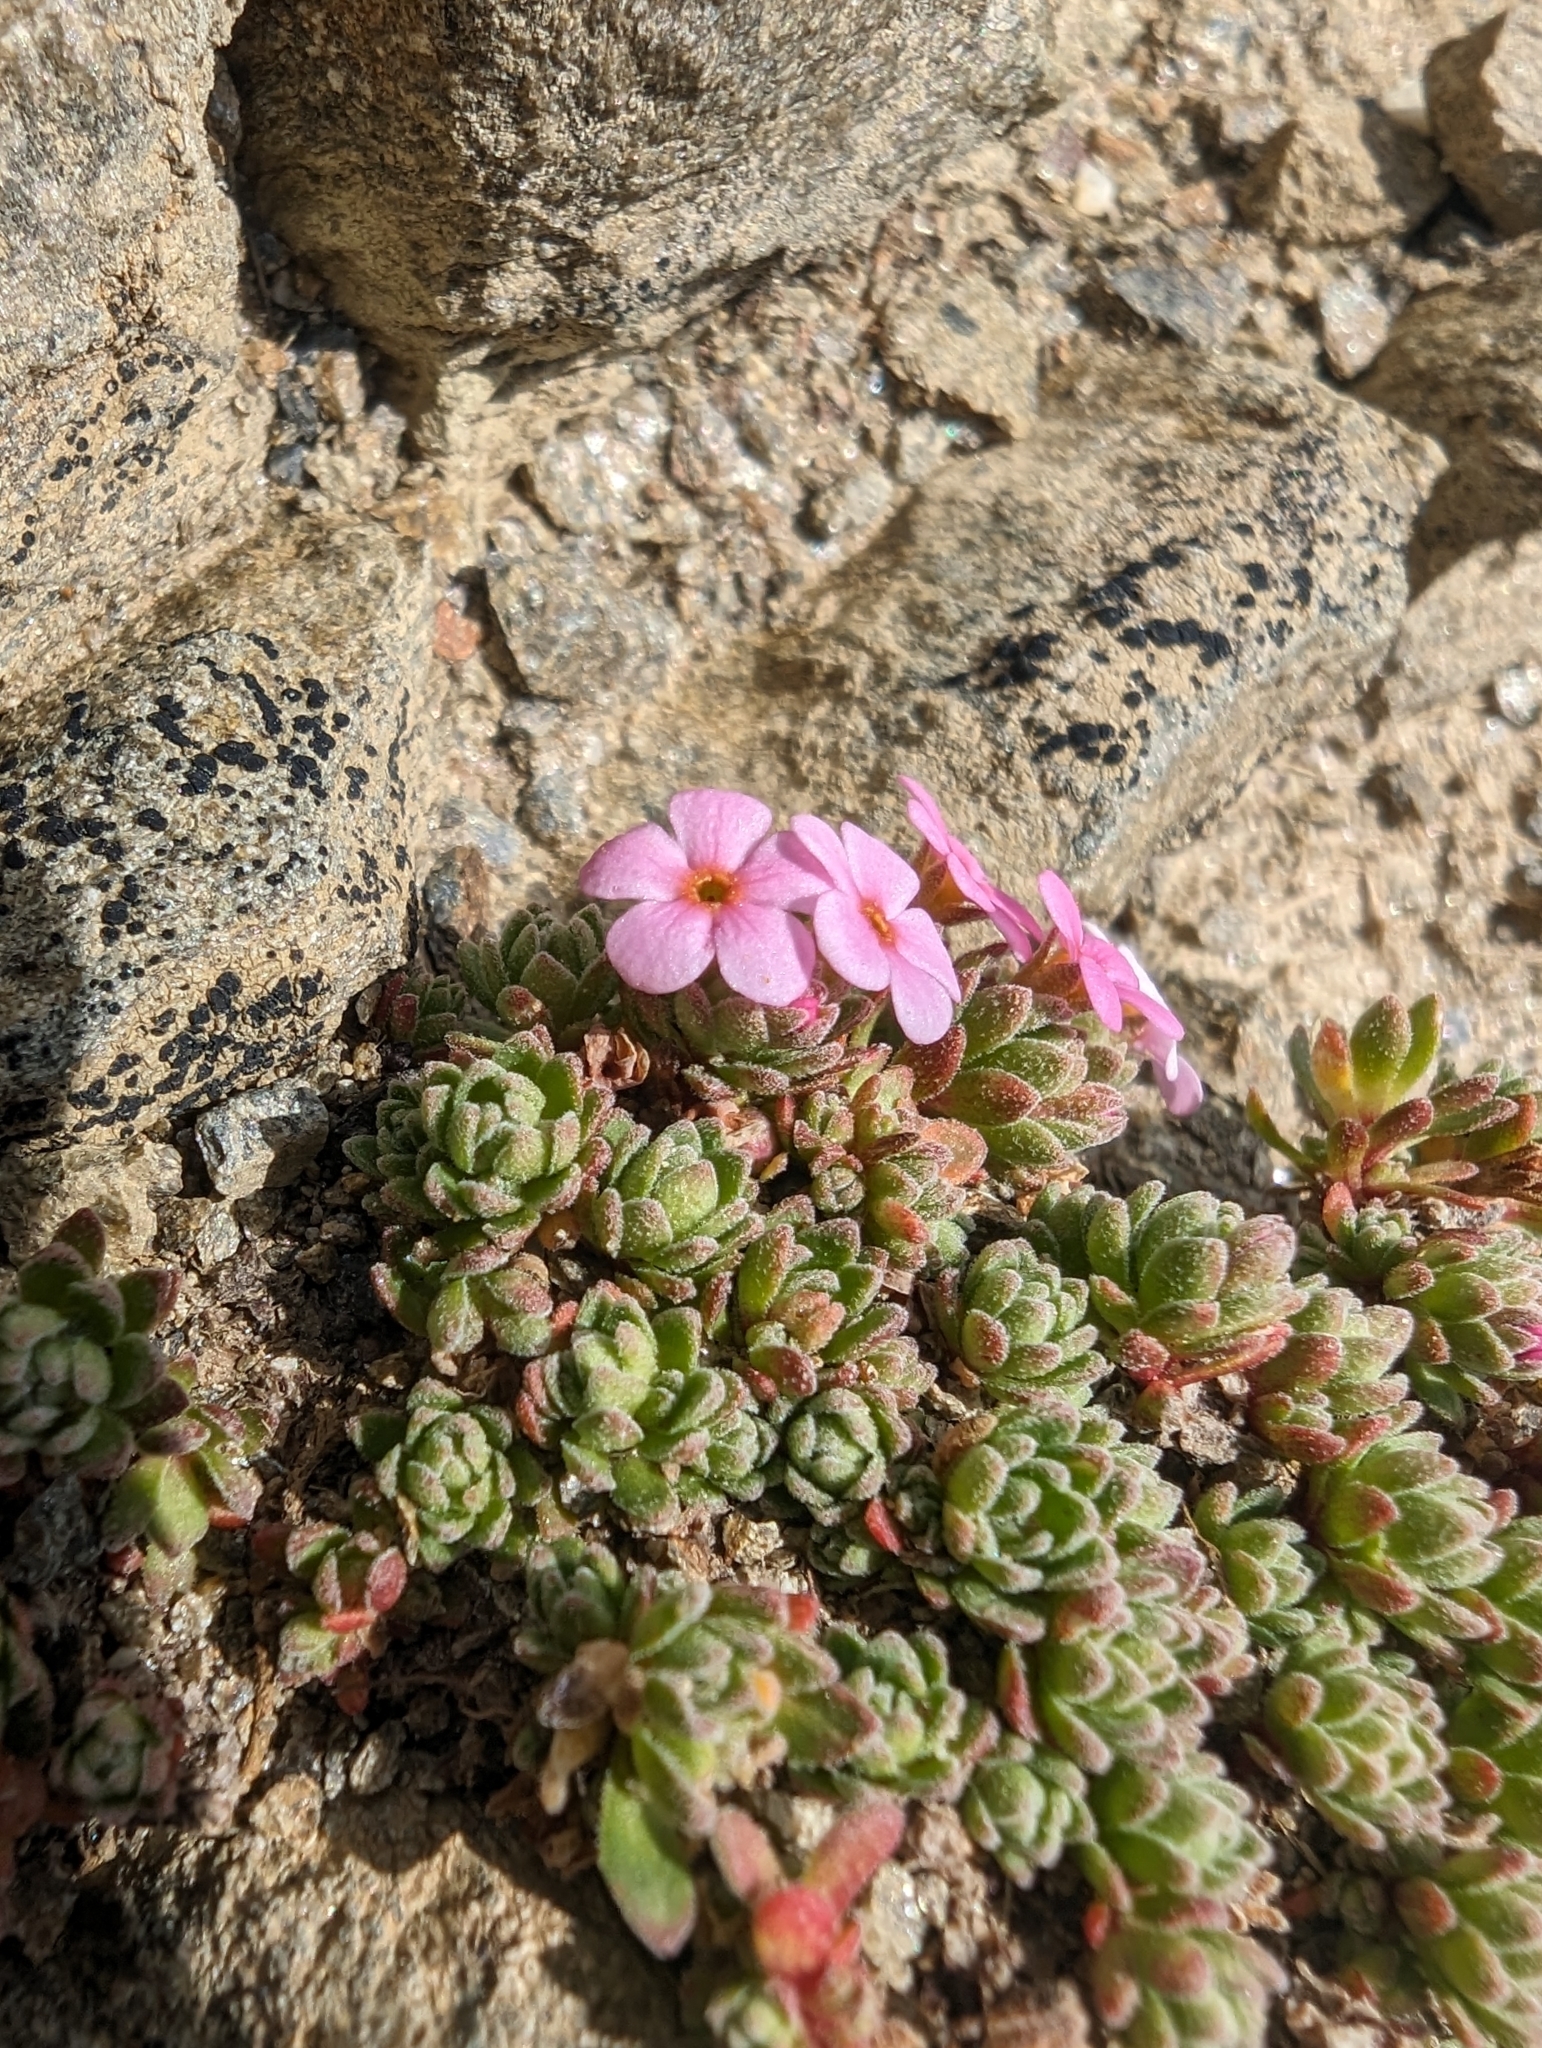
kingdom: Plantae
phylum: Tracheophyta
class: Magnoliopsida
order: Ericales
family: Primulaceae
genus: Androsace
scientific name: Androsace alpina
